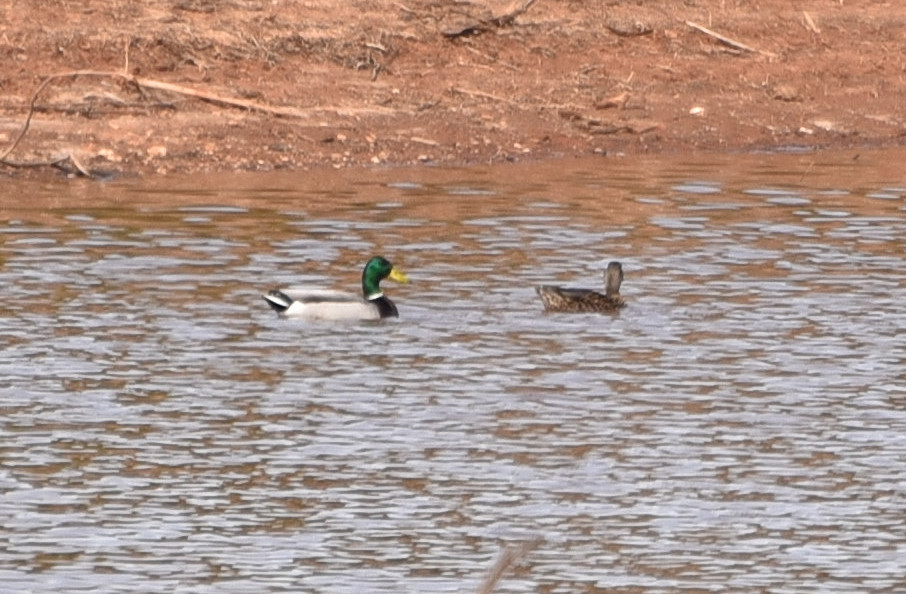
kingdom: Animalia
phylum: Chordata
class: Aves
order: Anseriformes
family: Anatidae
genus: Anas
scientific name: Anas platyrhynchos
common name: Mallard
